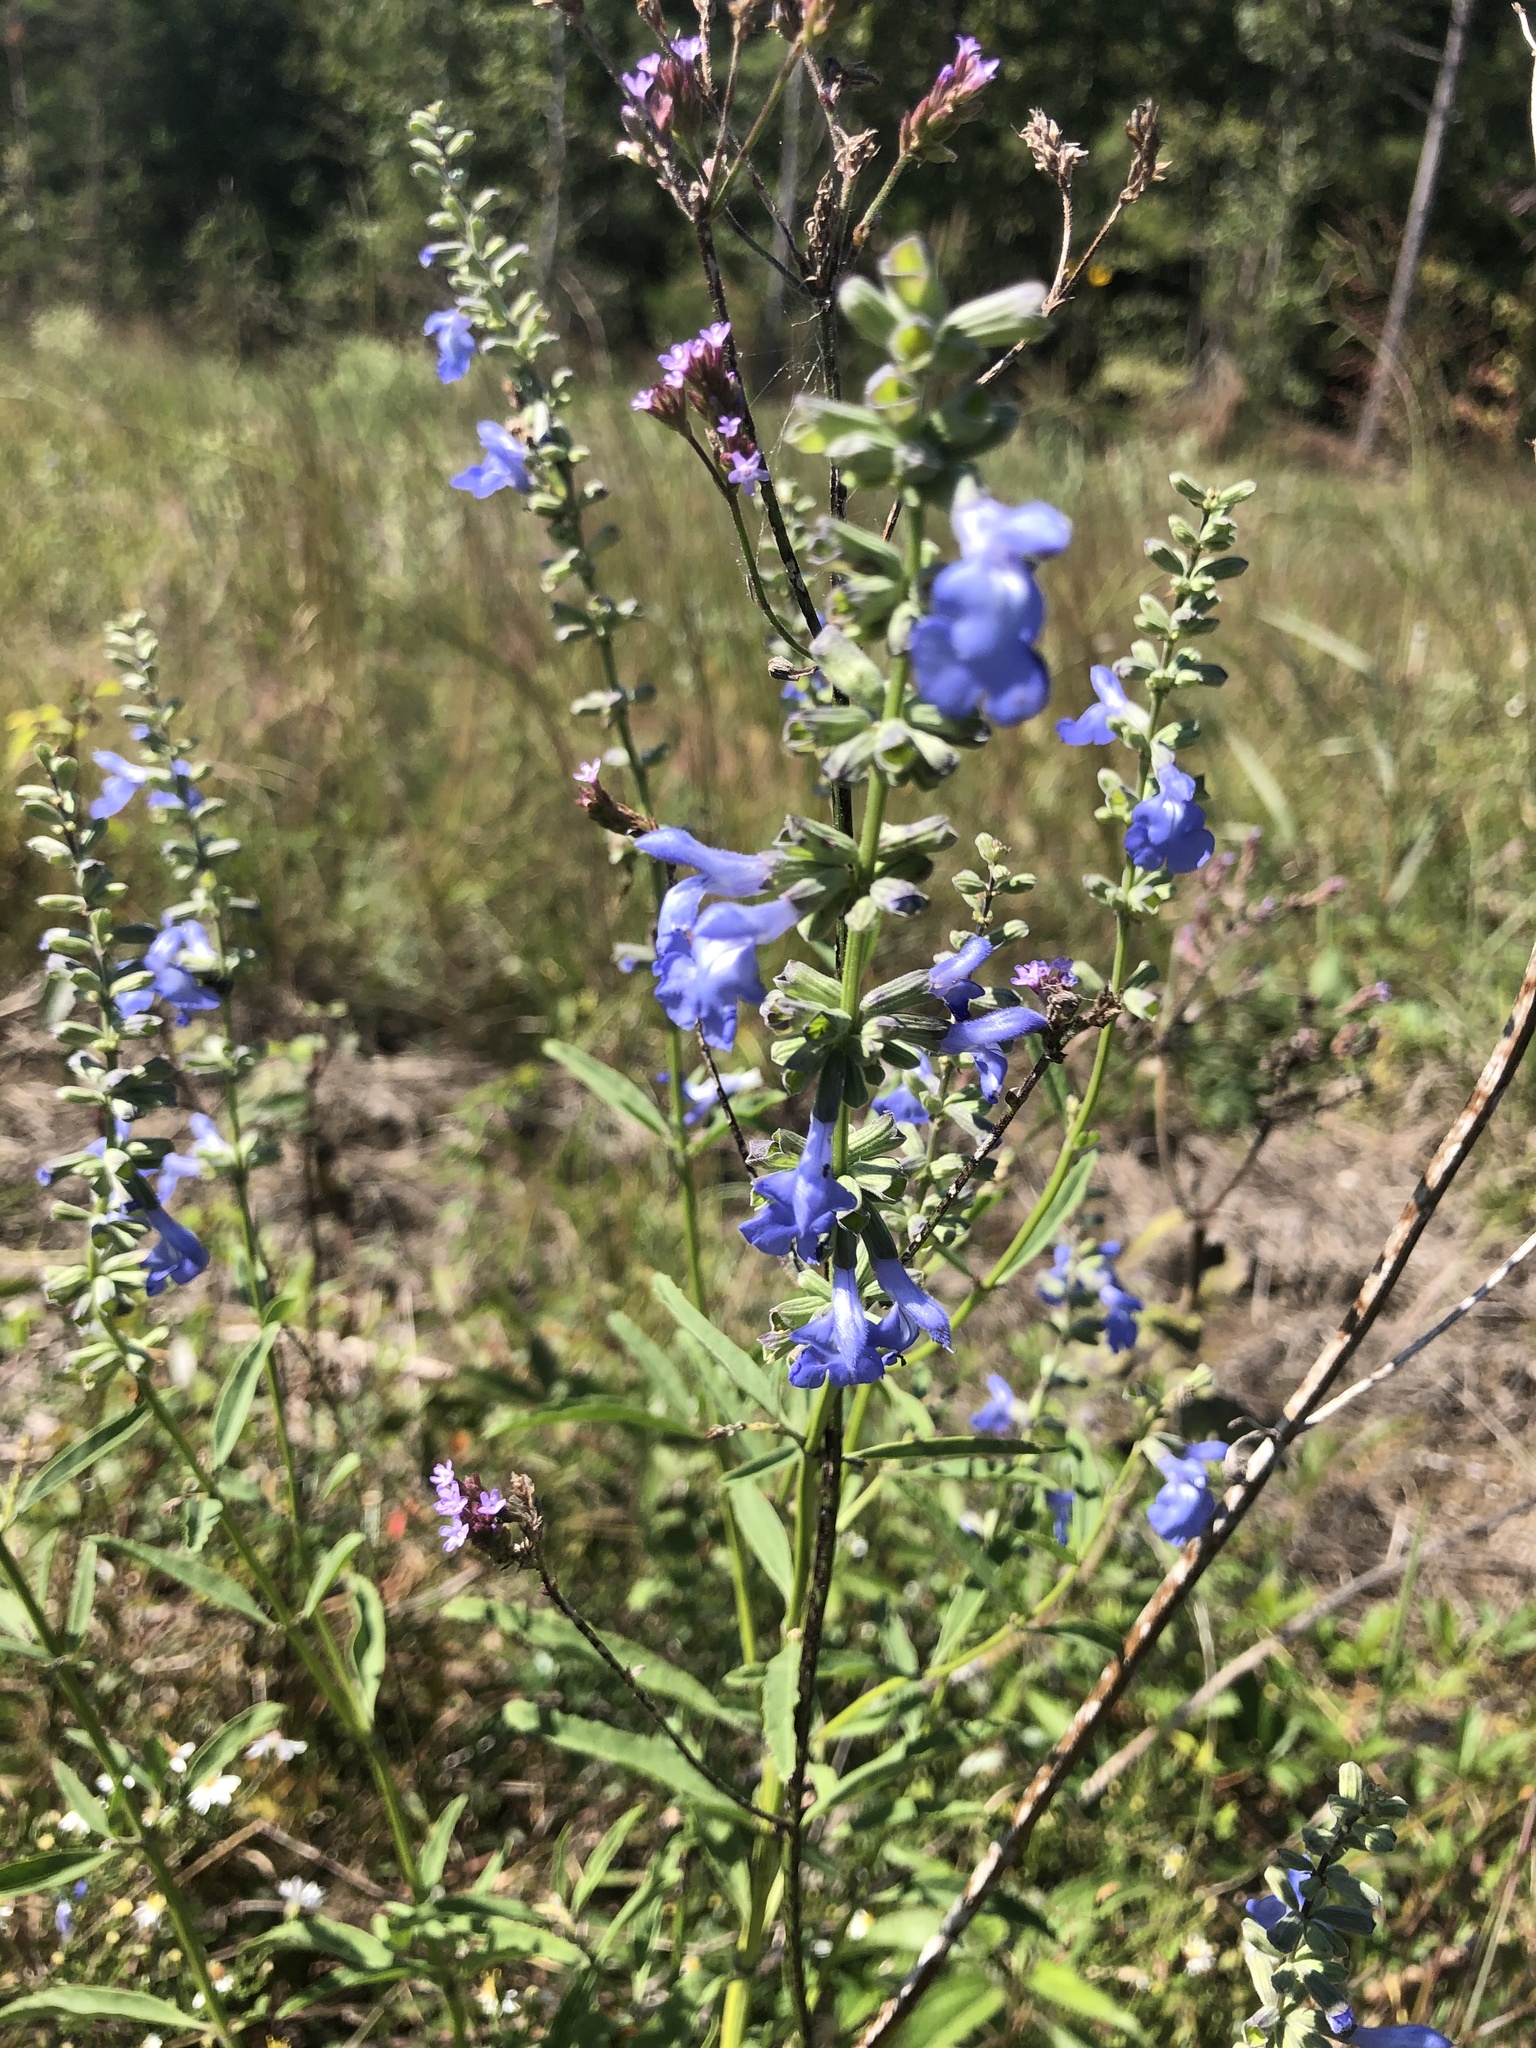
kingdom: Plantae
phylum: Tracheophyta
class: Magnoliopsida
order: Lamiales
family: Lamiaceae
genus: Salvia
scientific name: Salvia azurea
